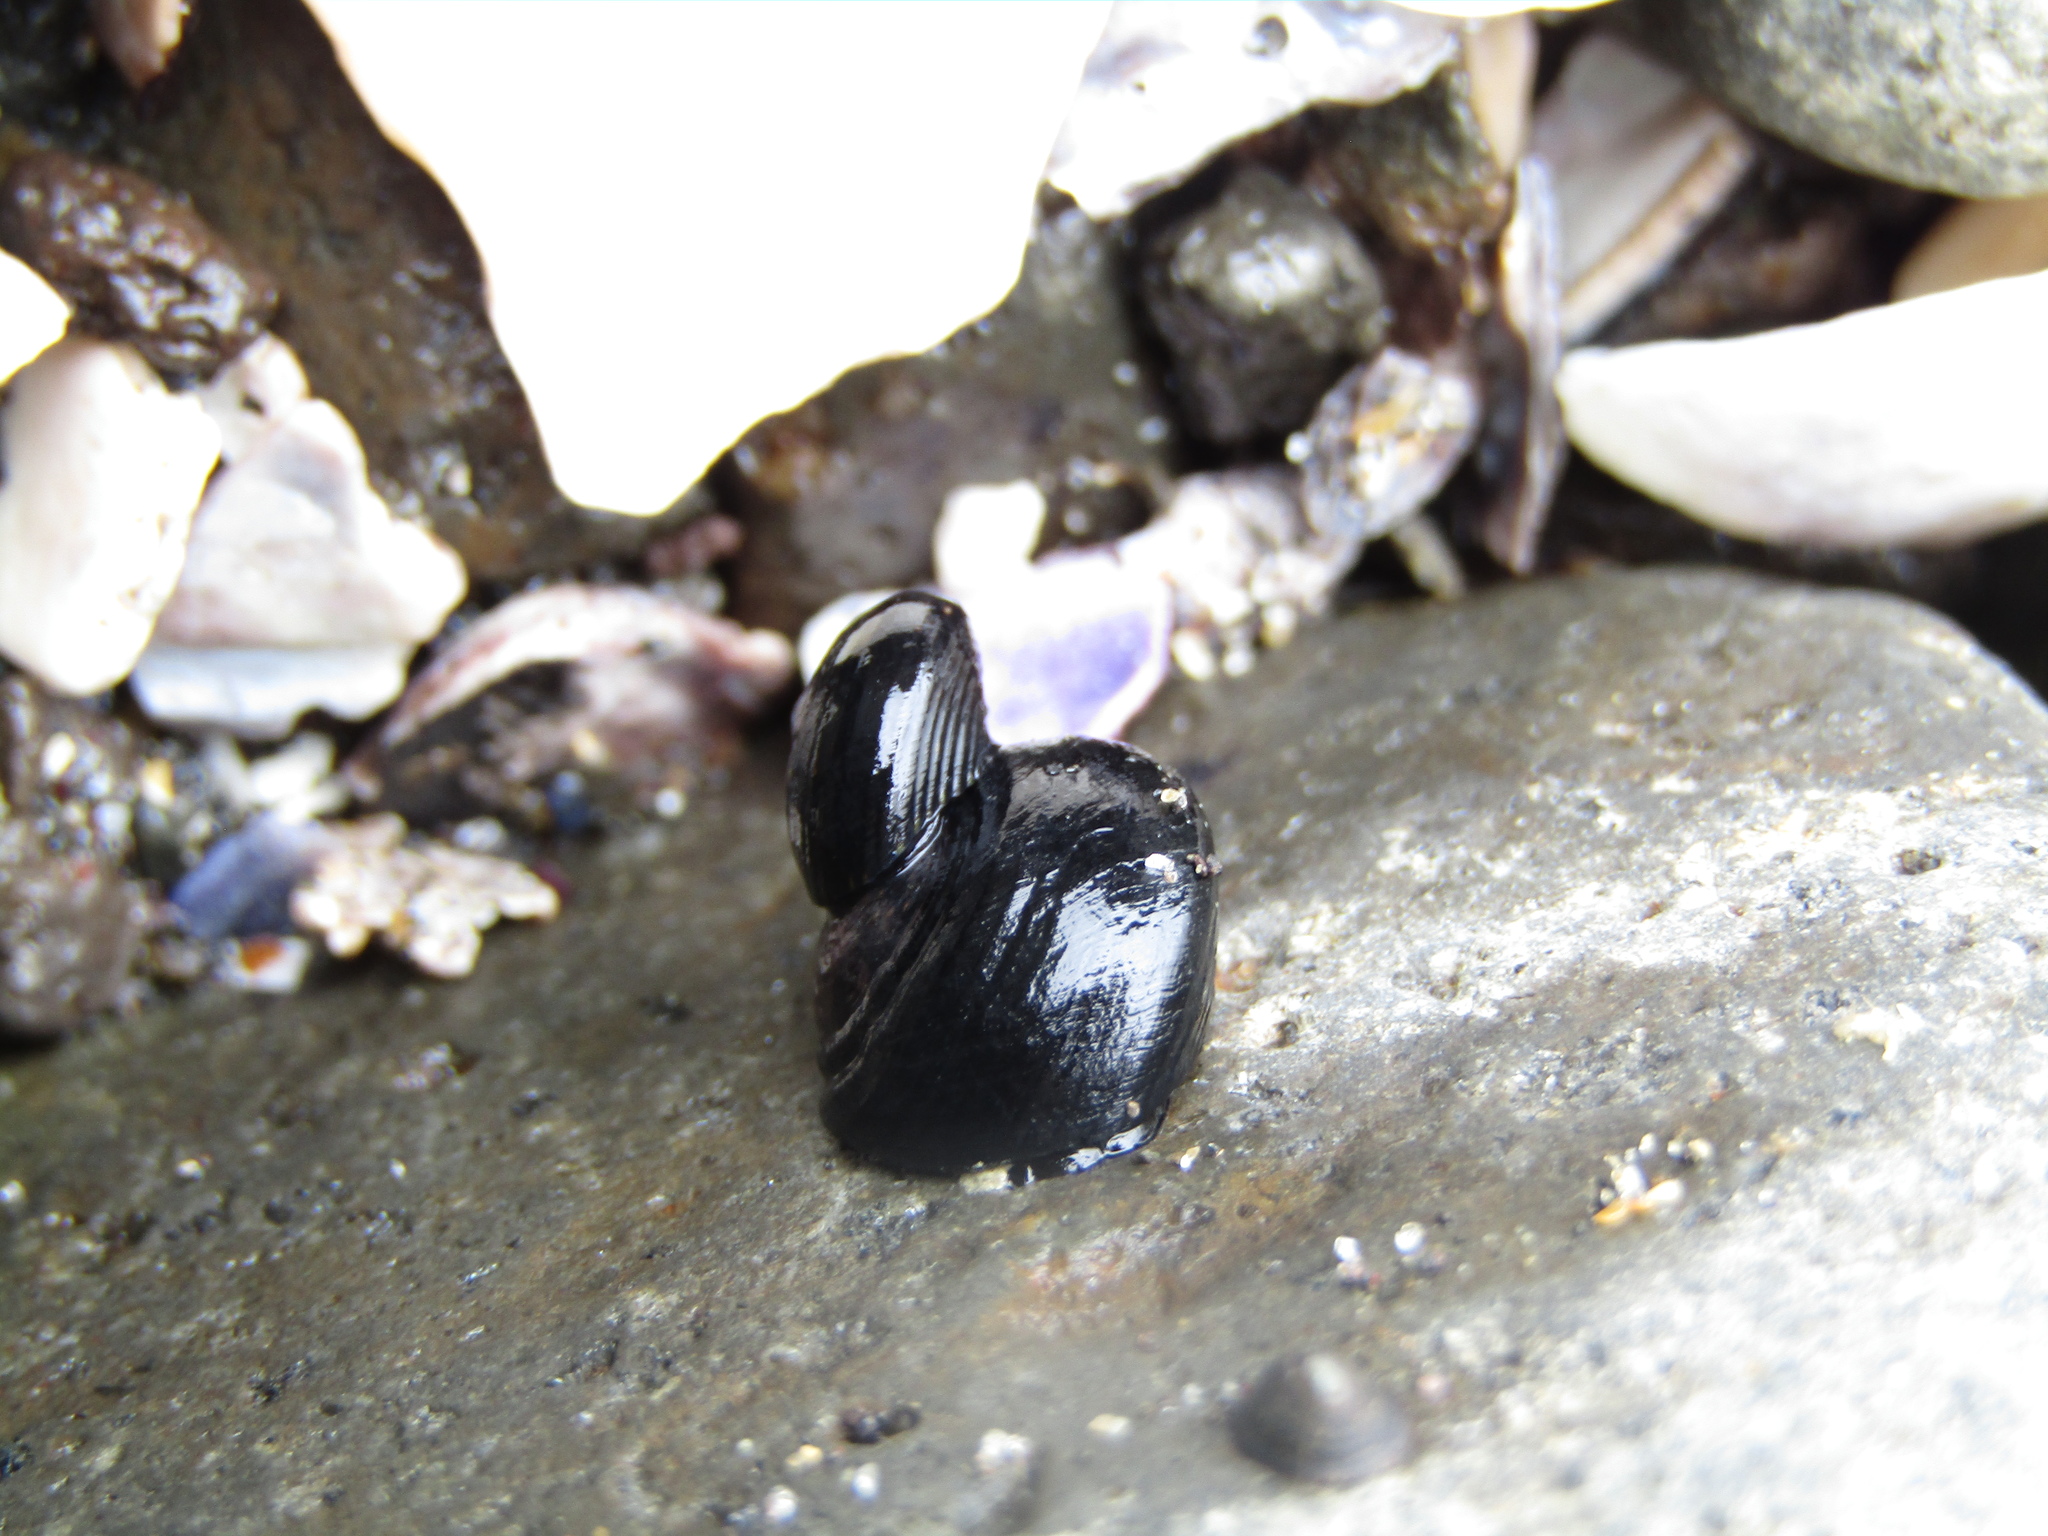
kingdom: Animalia
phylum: Mollusca
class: Gastropoda
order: Trochida
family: Trochidae
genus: Diloma
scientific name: Diloma aridum
